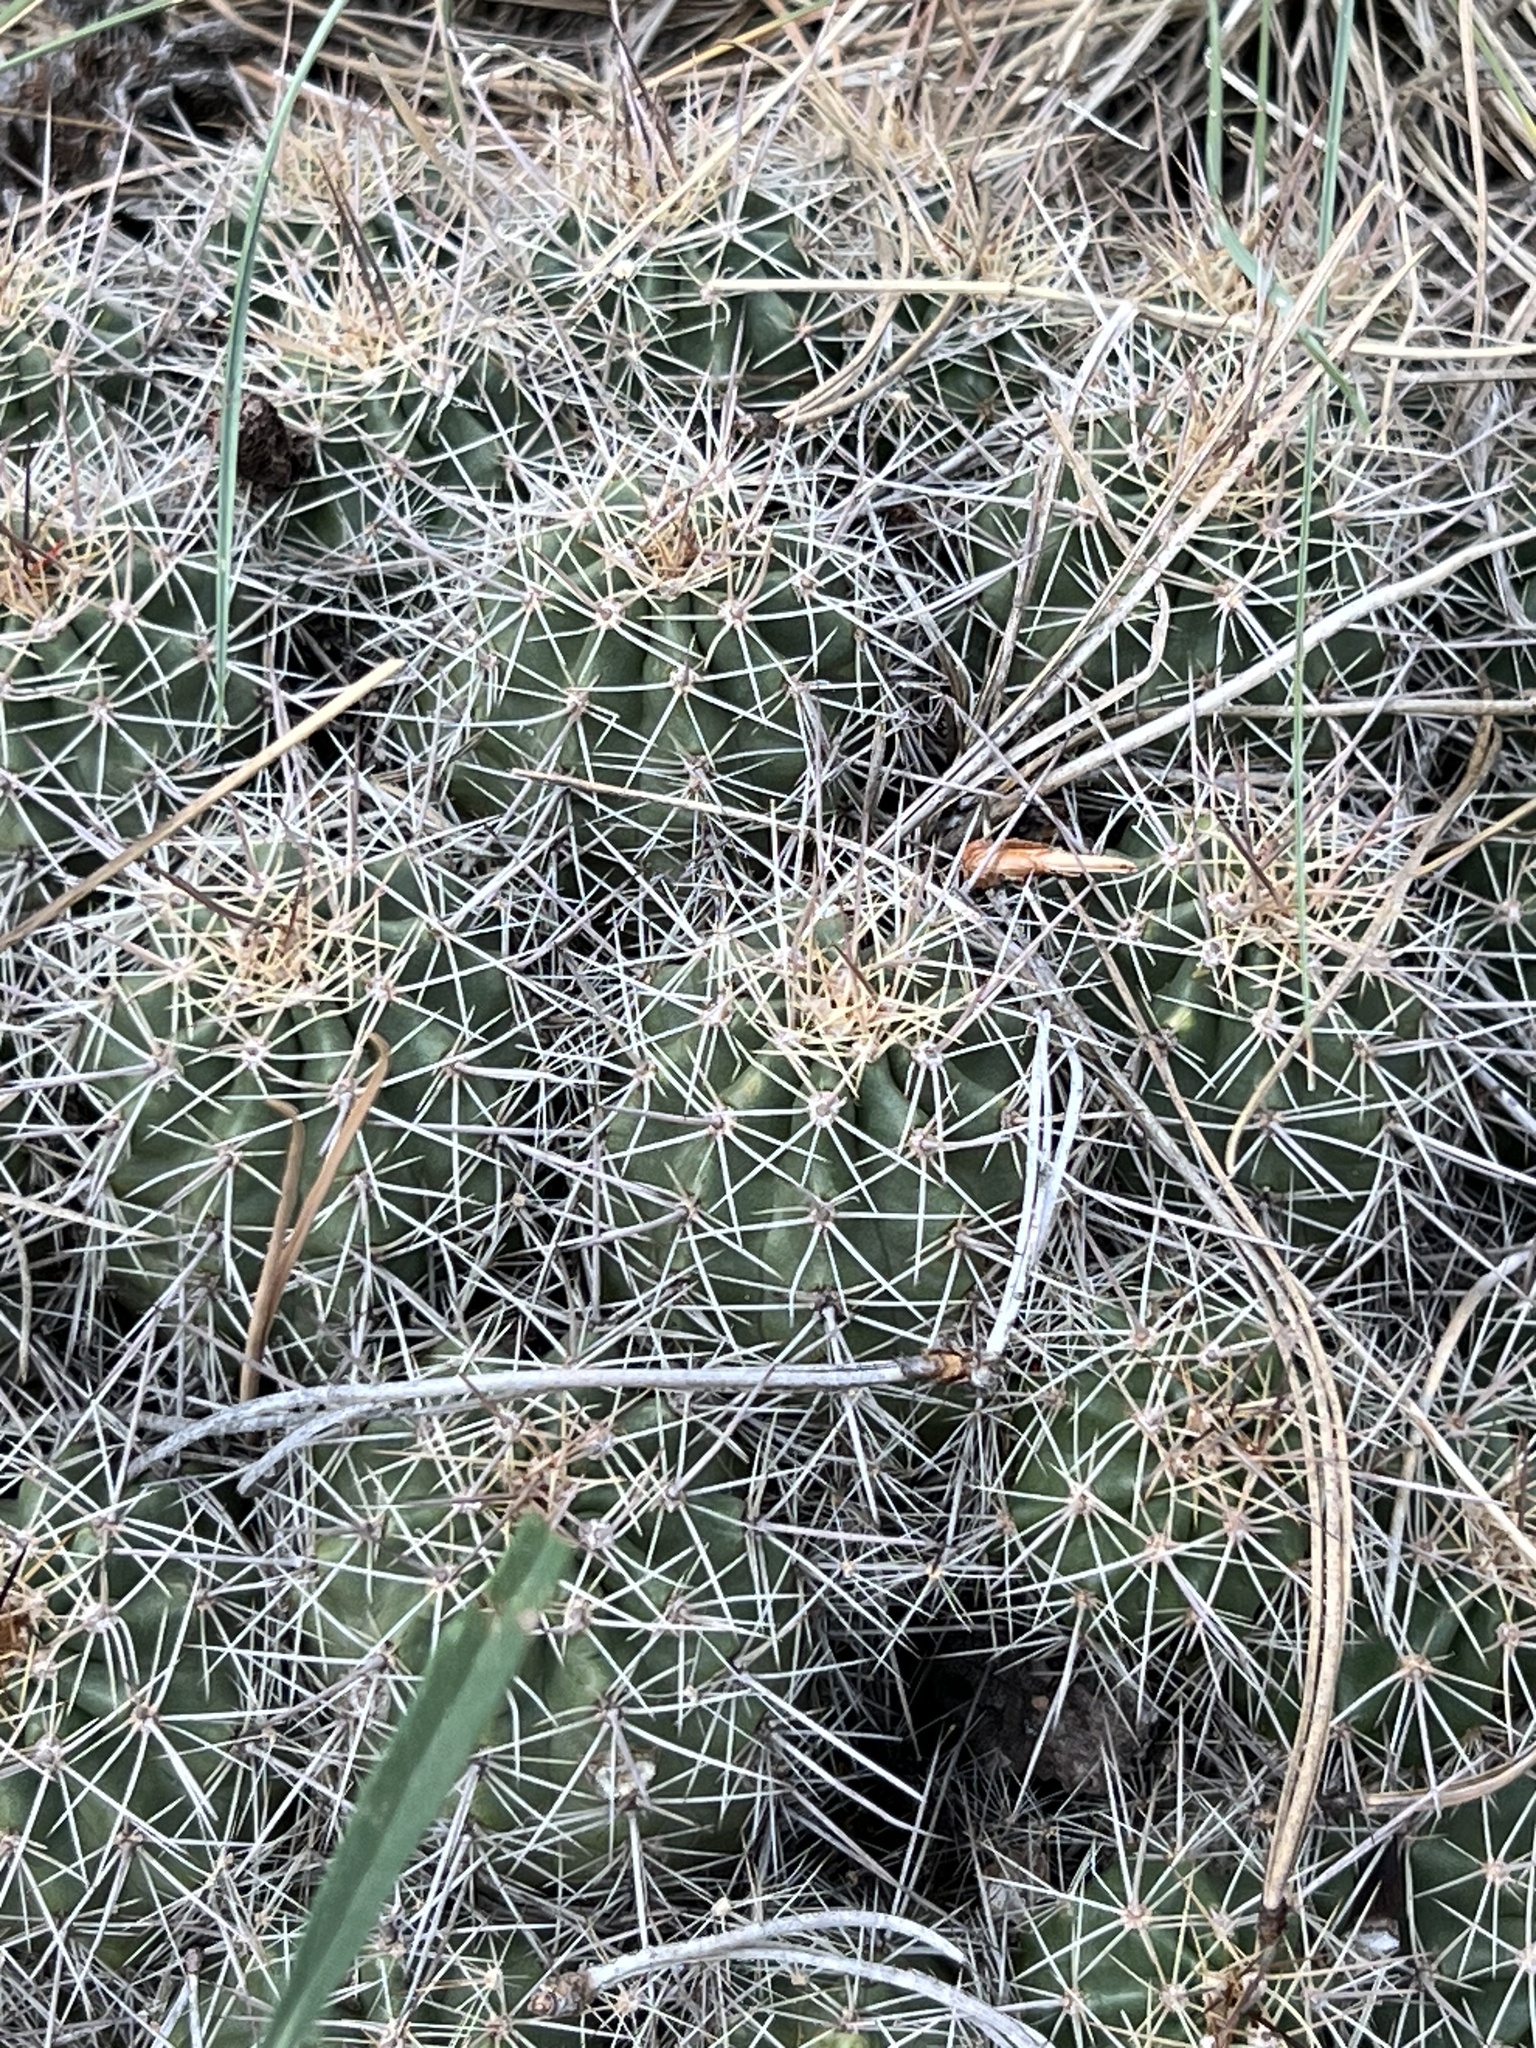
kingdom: Plantae
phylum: Tracheophyta
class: Magnoliopsida
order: Caryophyllales
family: Cactaceae
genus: Echinocereus
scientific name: Echinocereus bakeri
